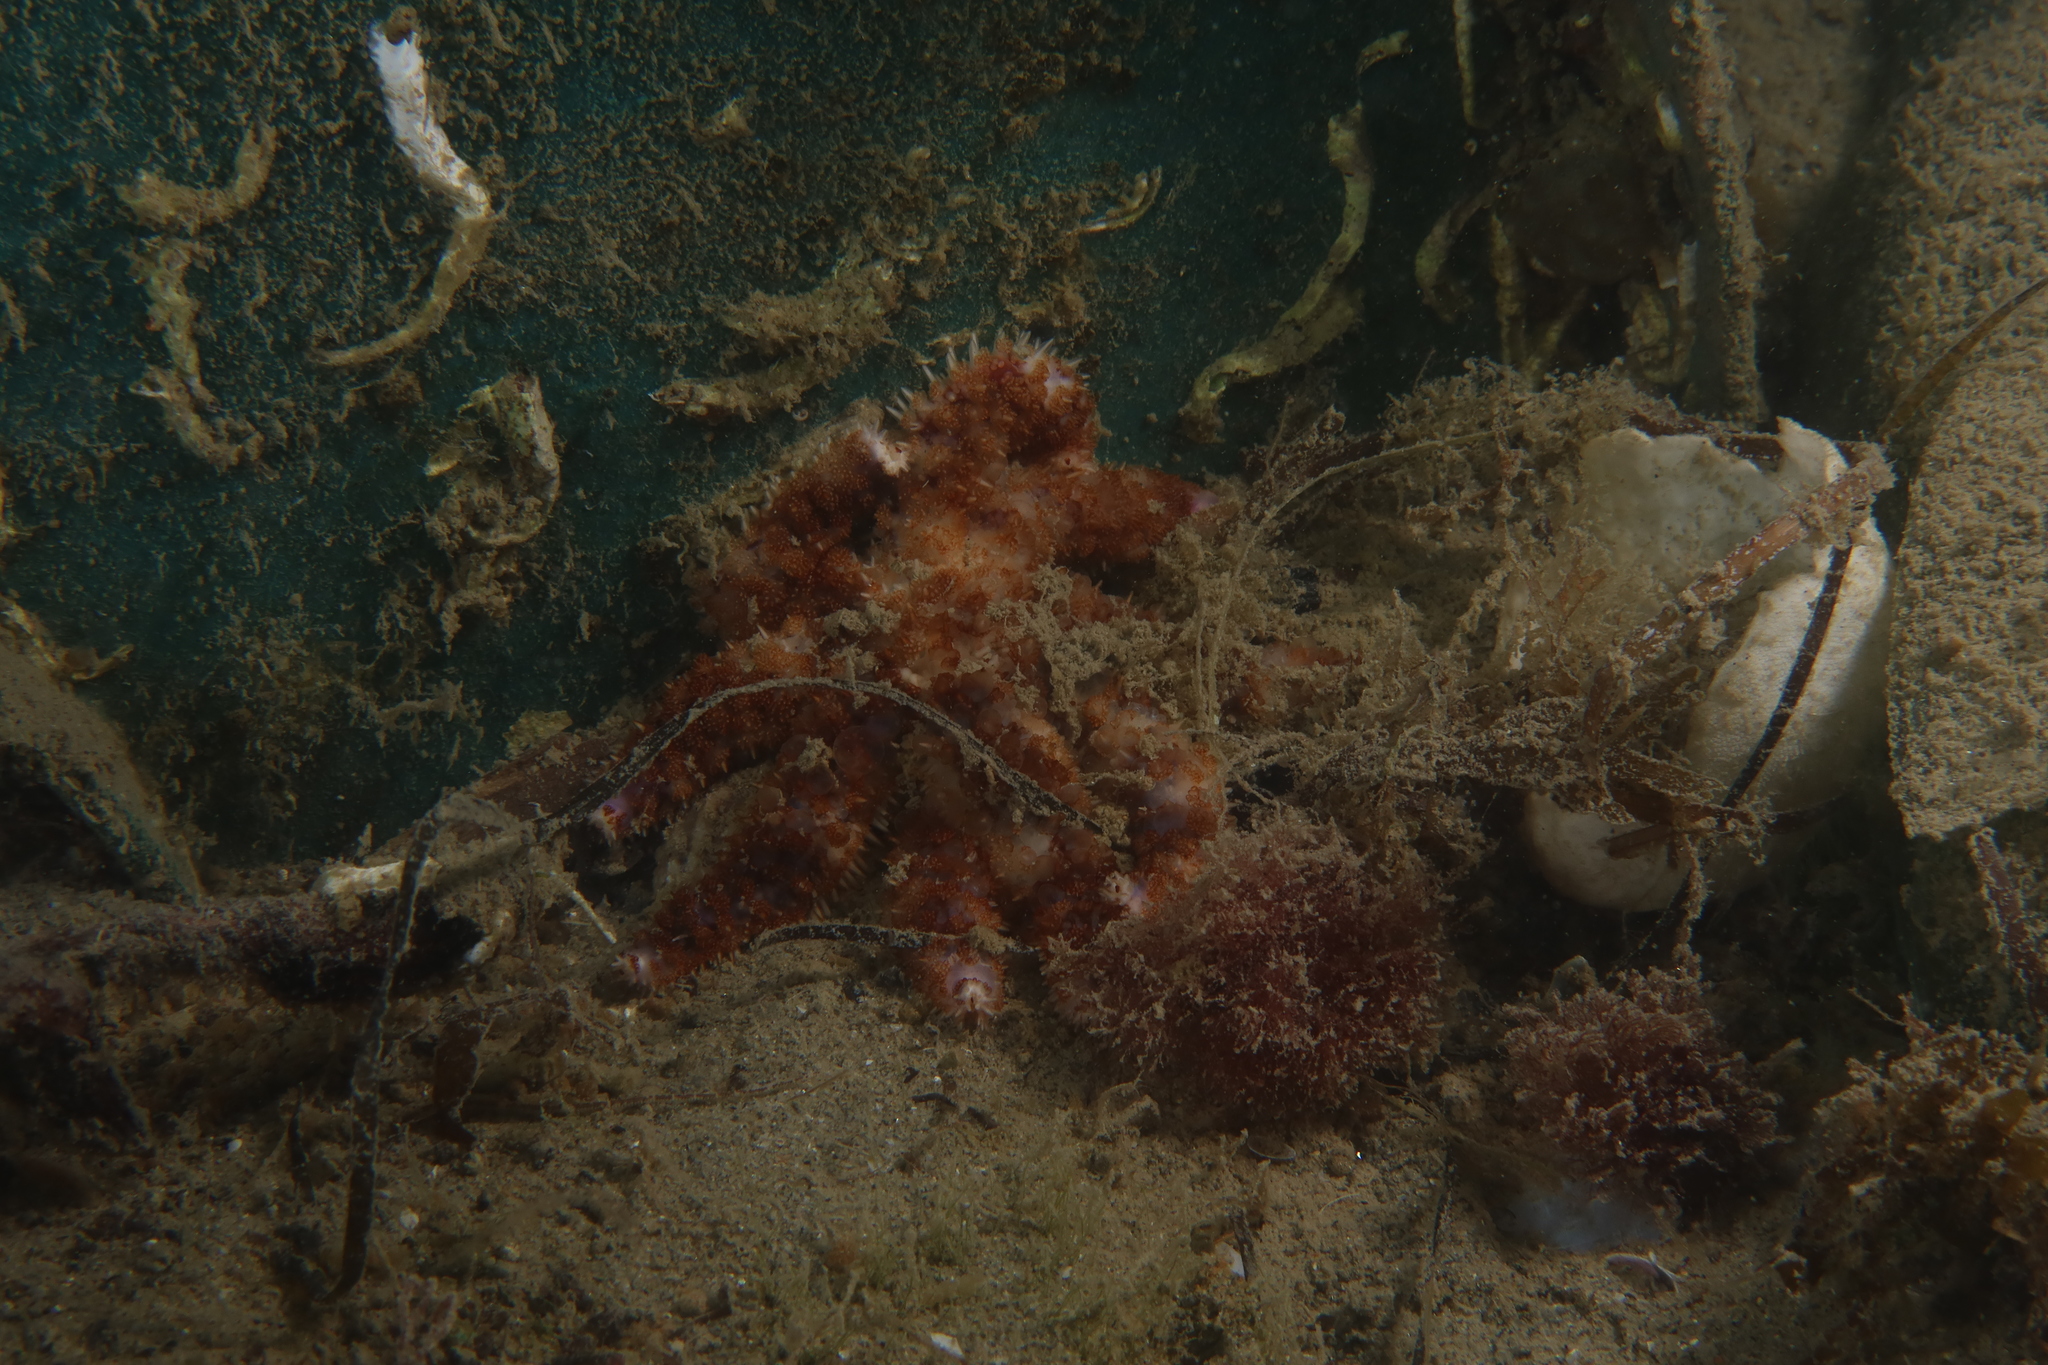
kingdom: Animalia
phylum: Echinodermata
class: Asteroidea
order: Forcipulatida
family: Asteriidae
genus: Coscinasterias
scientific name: Coscinasterias tenuispina
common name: Blue spiny starfish
